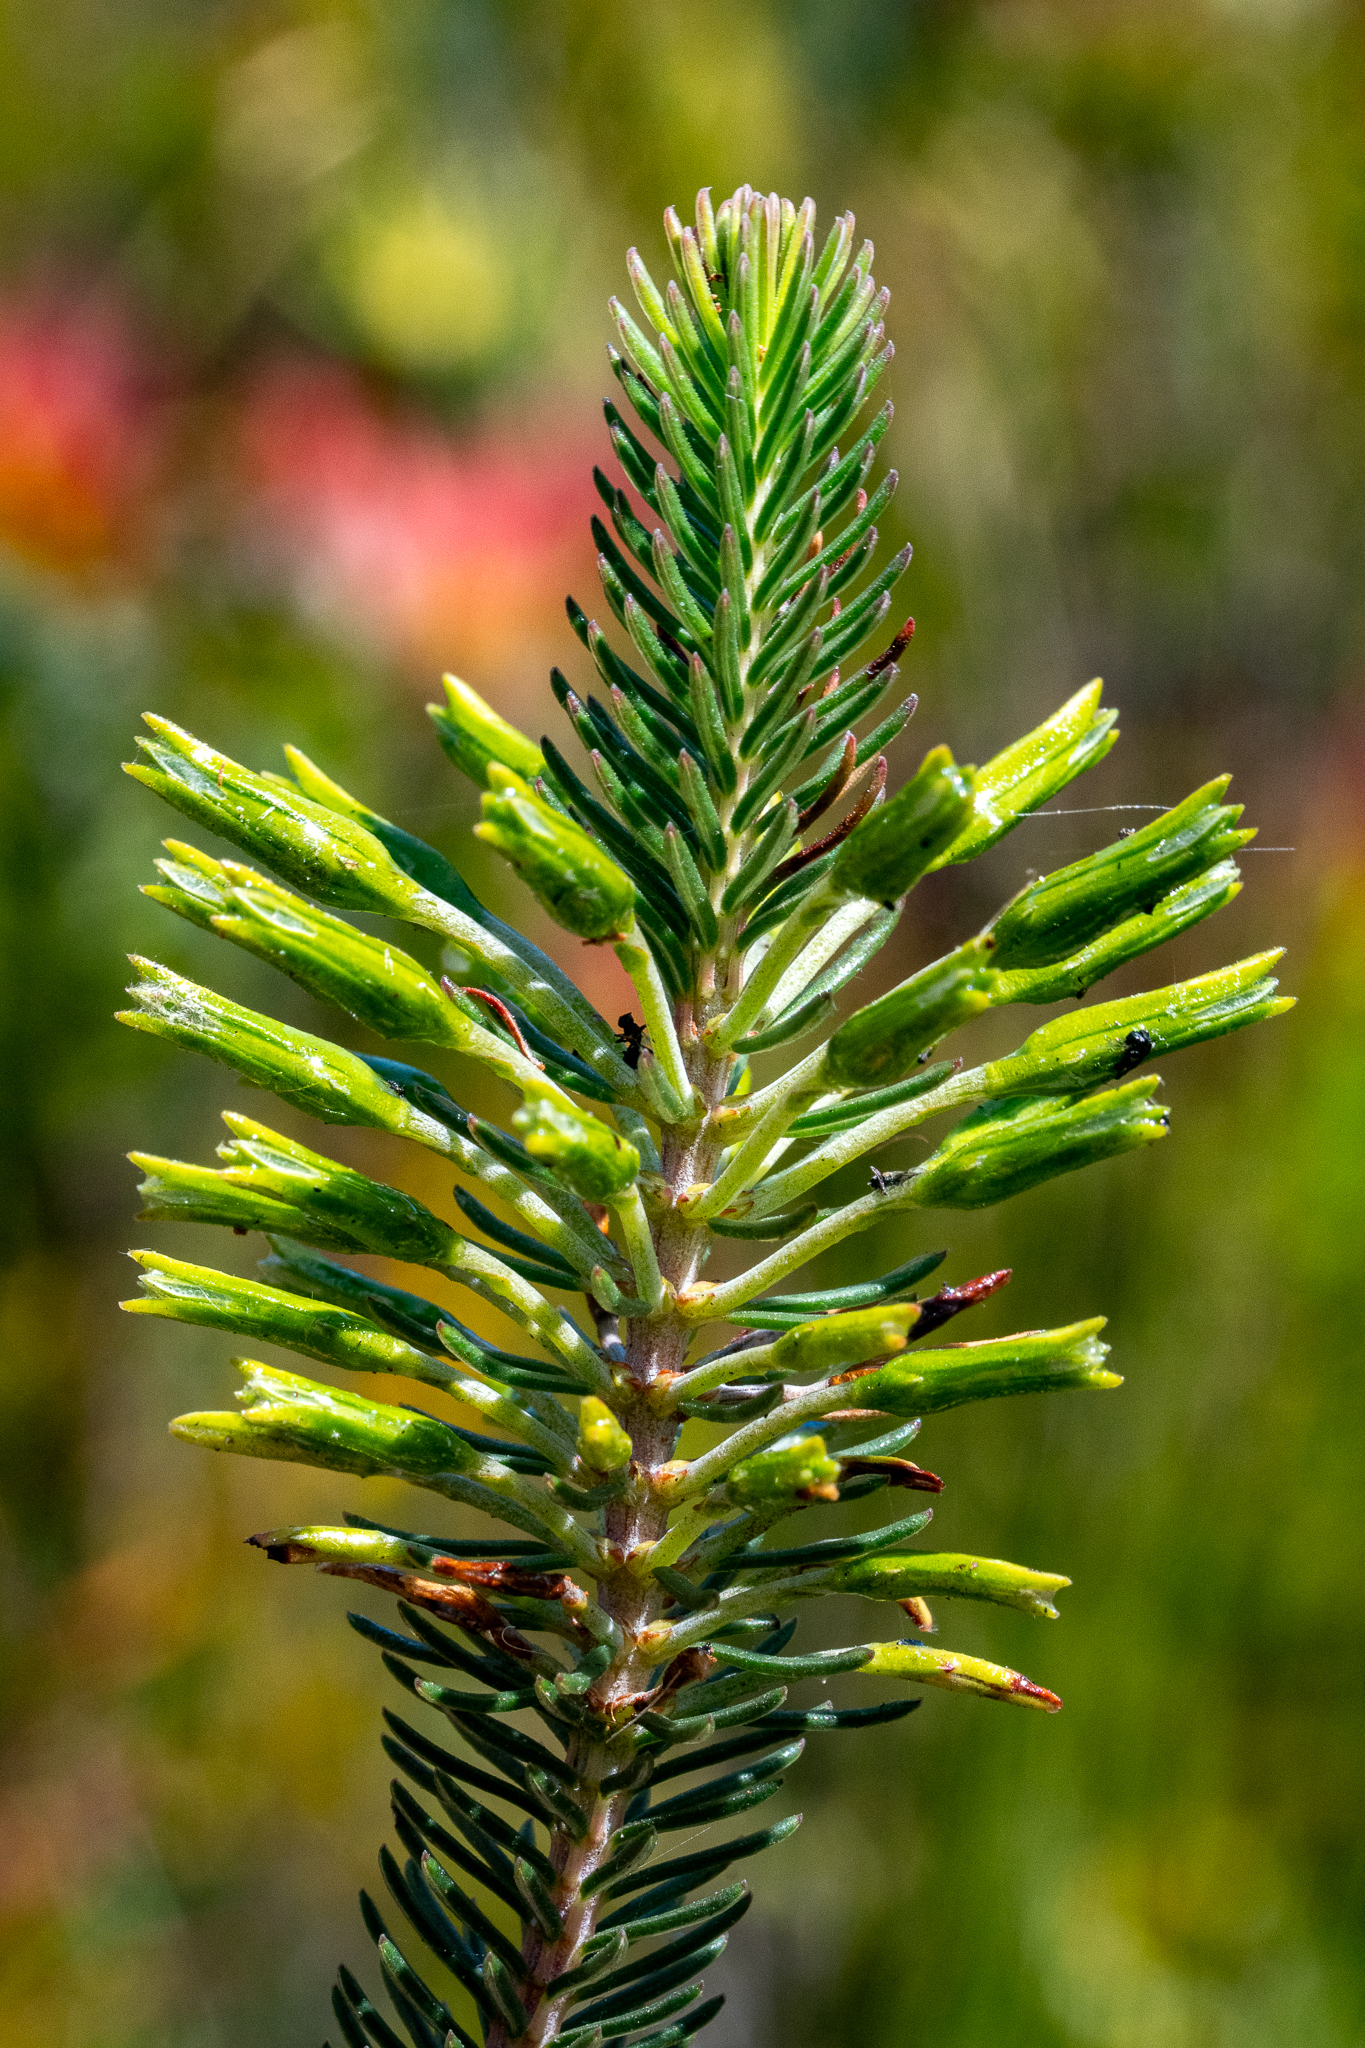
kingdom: Plantae
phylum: Tracheophyta
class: Magnoliopsida
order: Ericales
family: Ericaceae
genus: Erica
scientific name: Erica thomae
